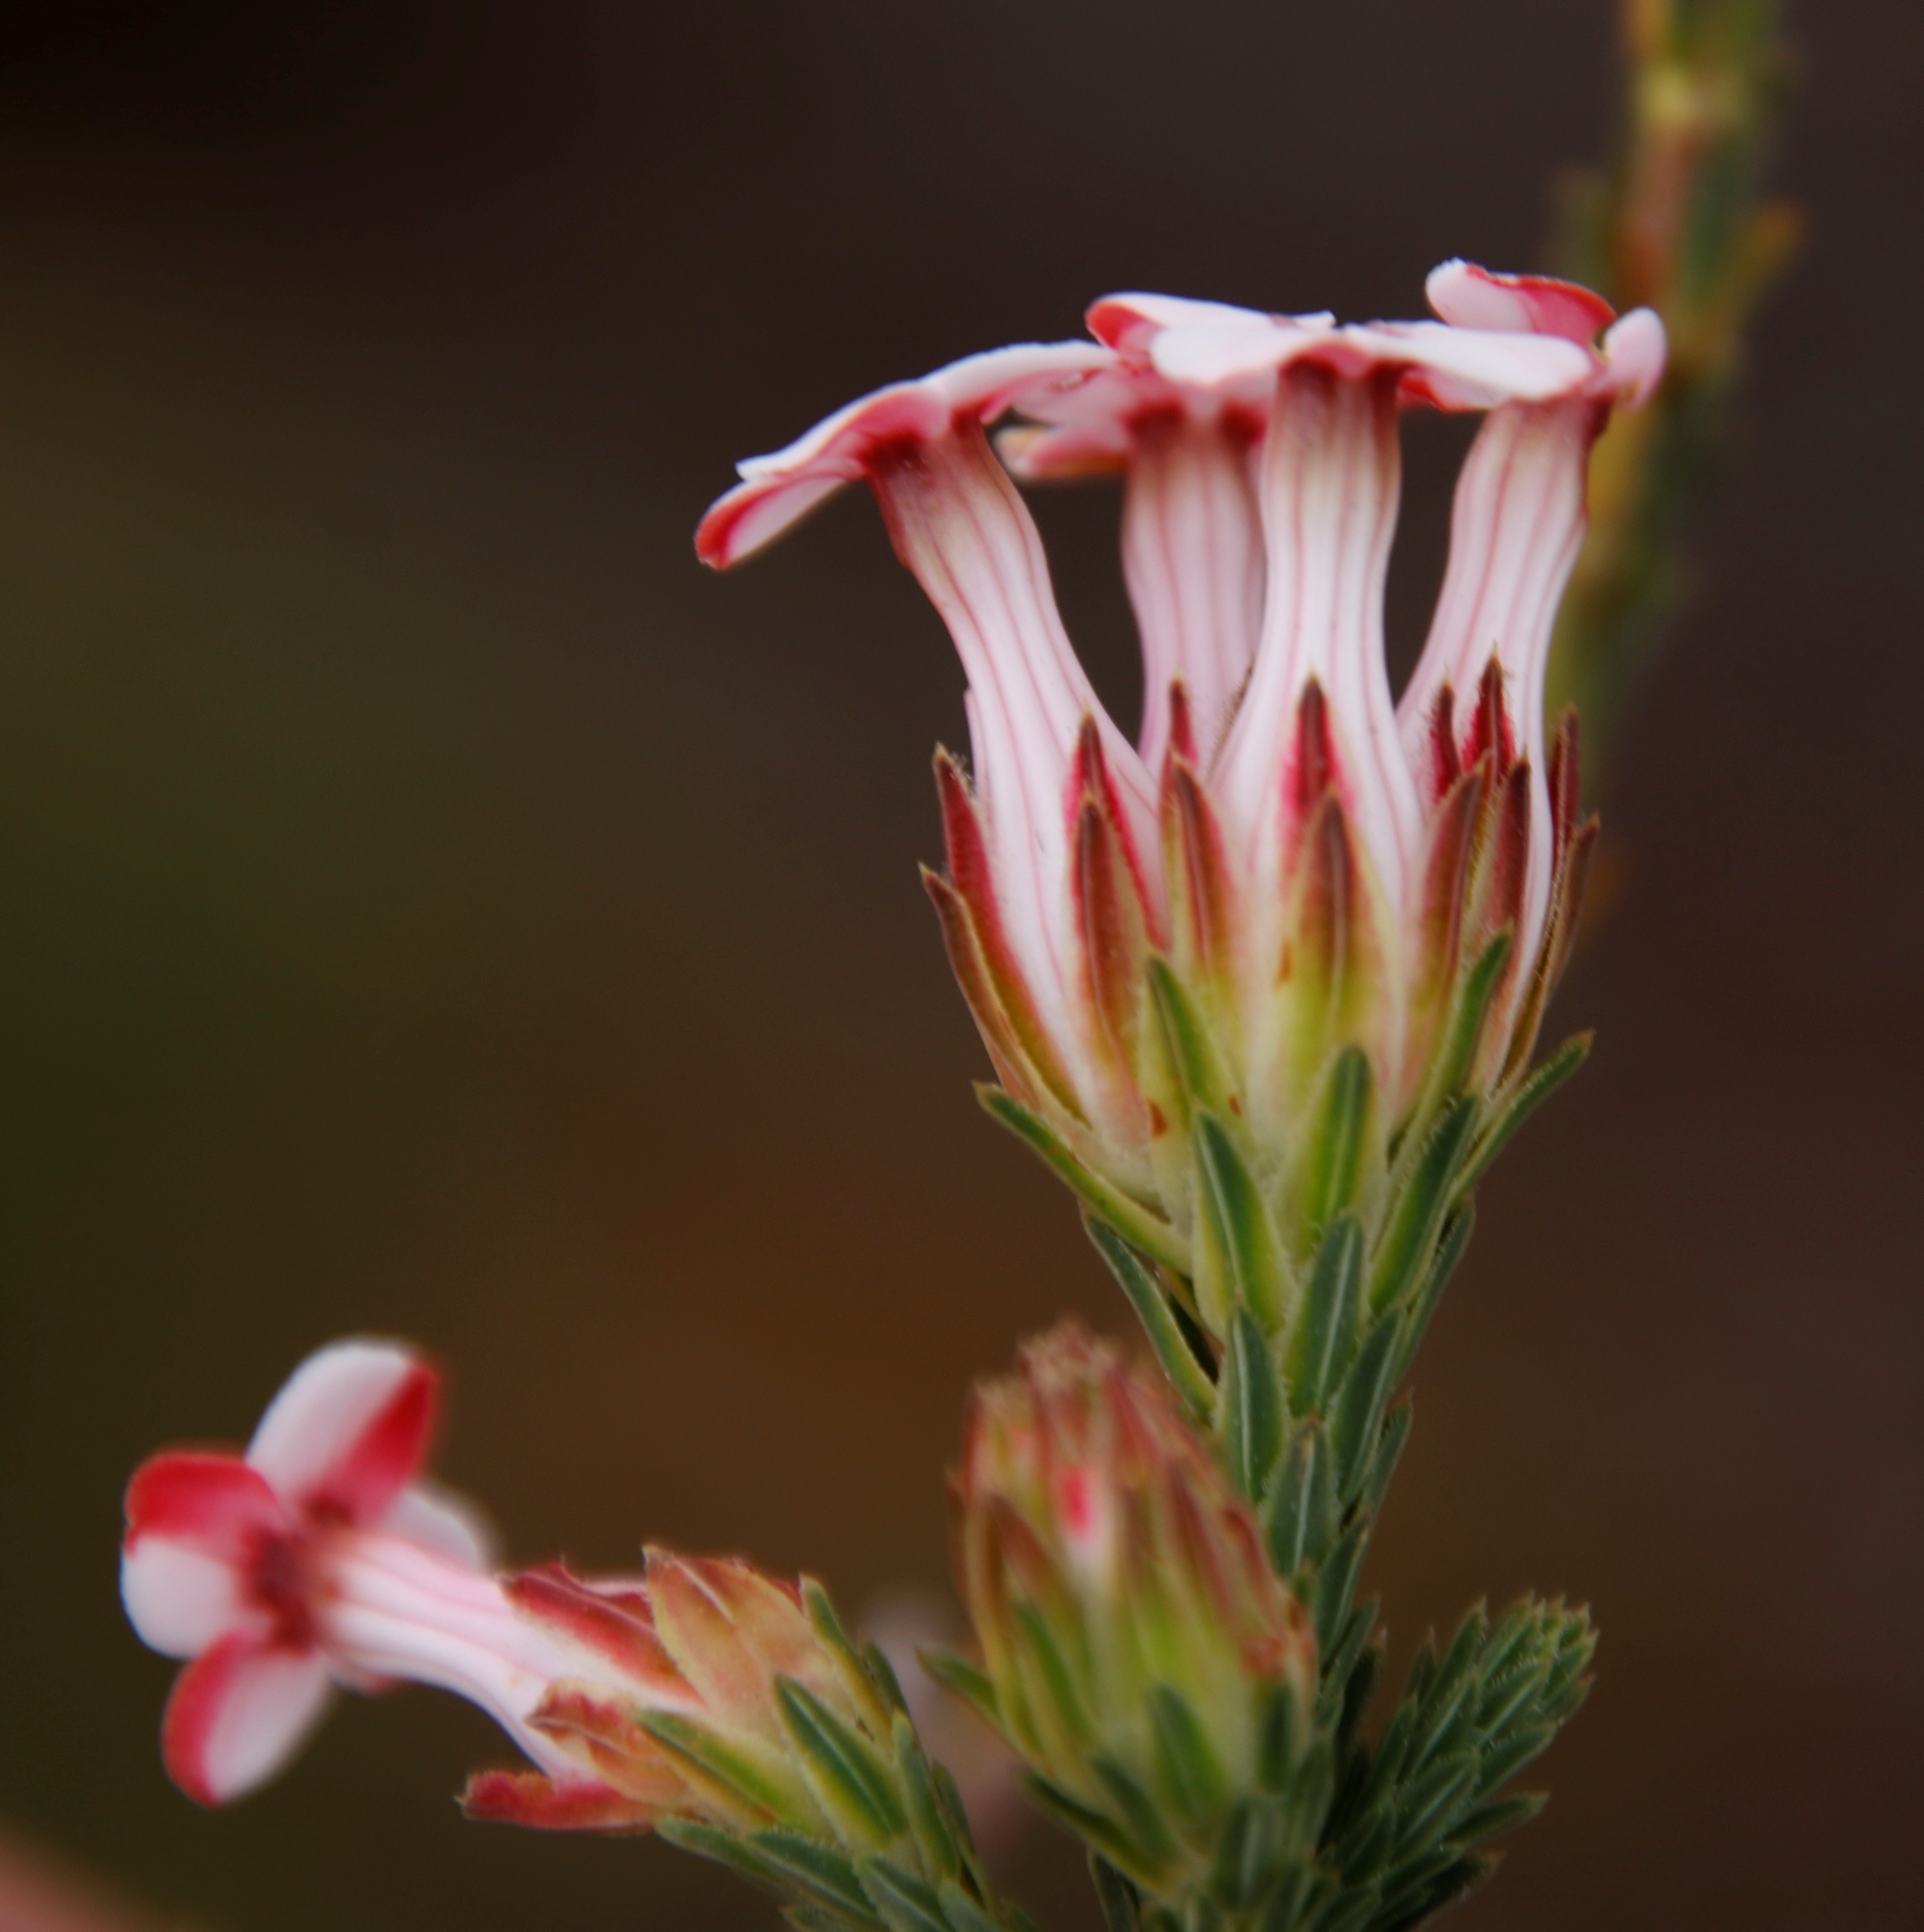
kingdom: Plantae
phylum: Tracheophyta
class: Magnoliopsida
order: Ericales
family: Ericaceae
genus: Erica
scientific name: Erica ampullacea
